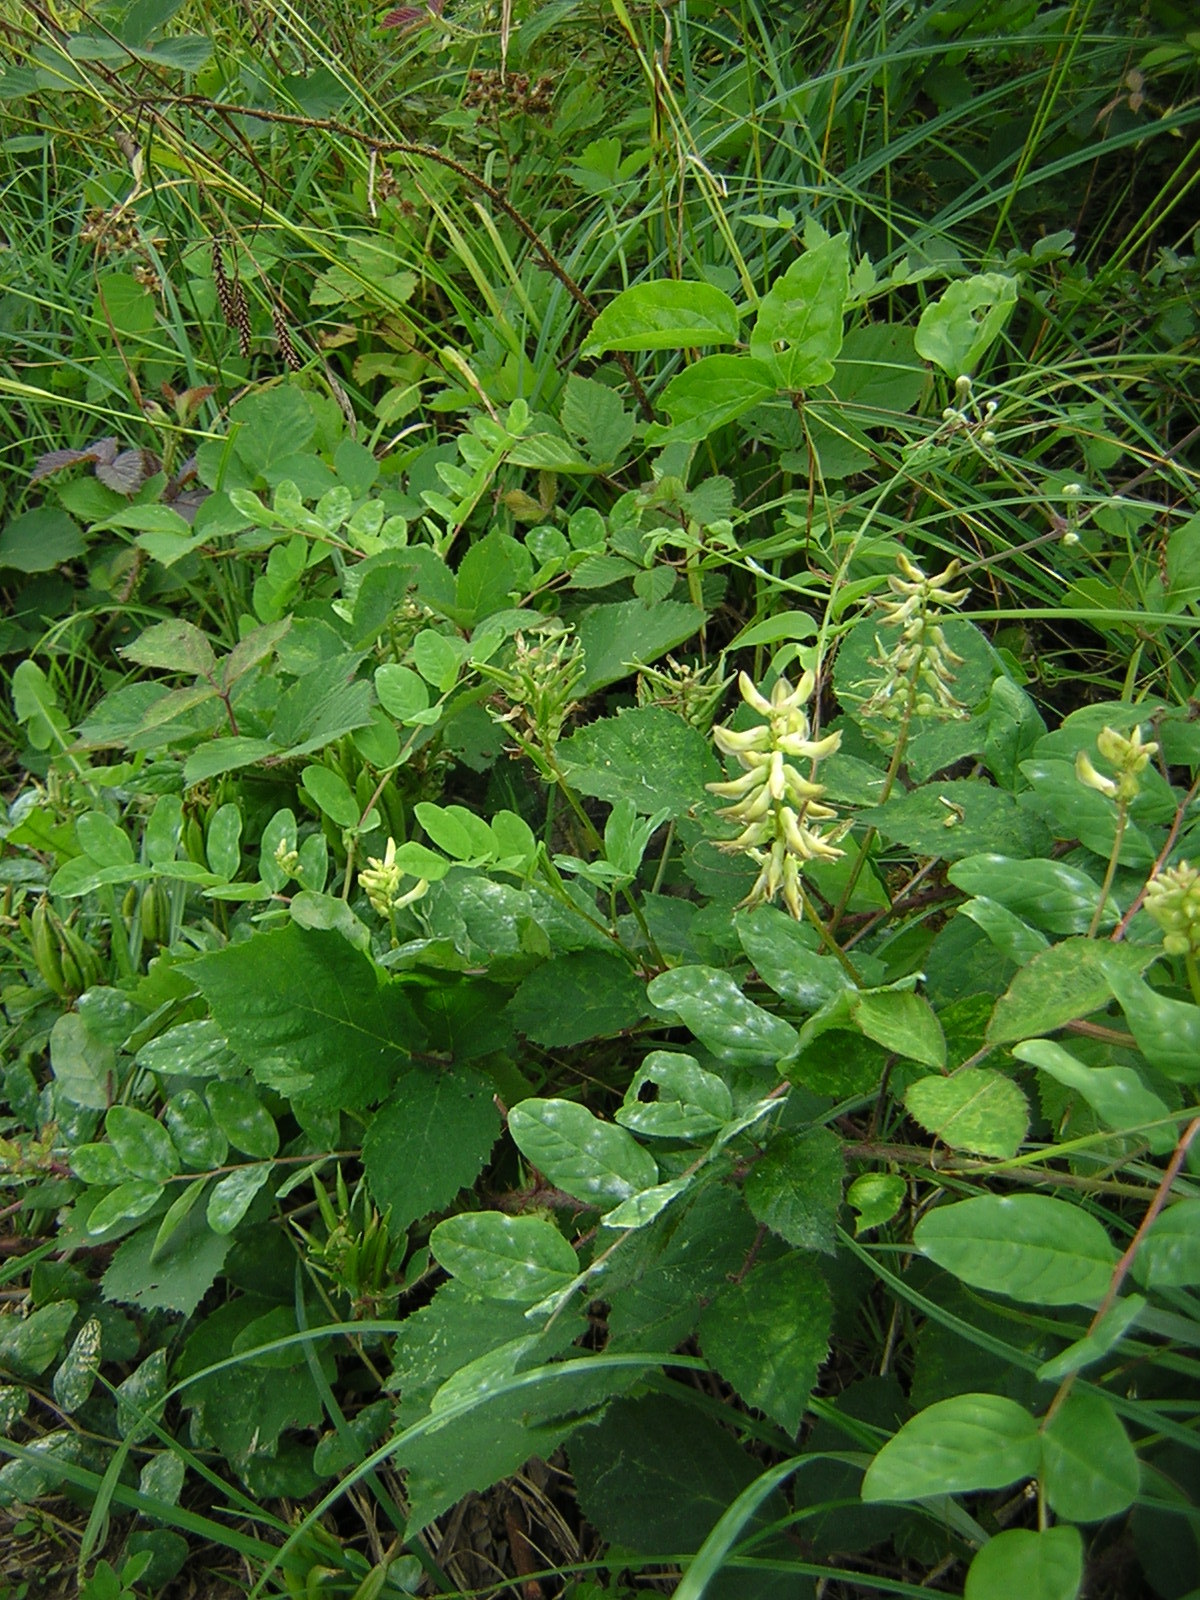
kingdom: Plantae
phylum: Tracheophyta
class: Magnoliopsida
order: Fabales
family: Fabaceae
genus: Astragalus
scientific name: Astragalus glycyphyllos
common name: Wild liquorice
